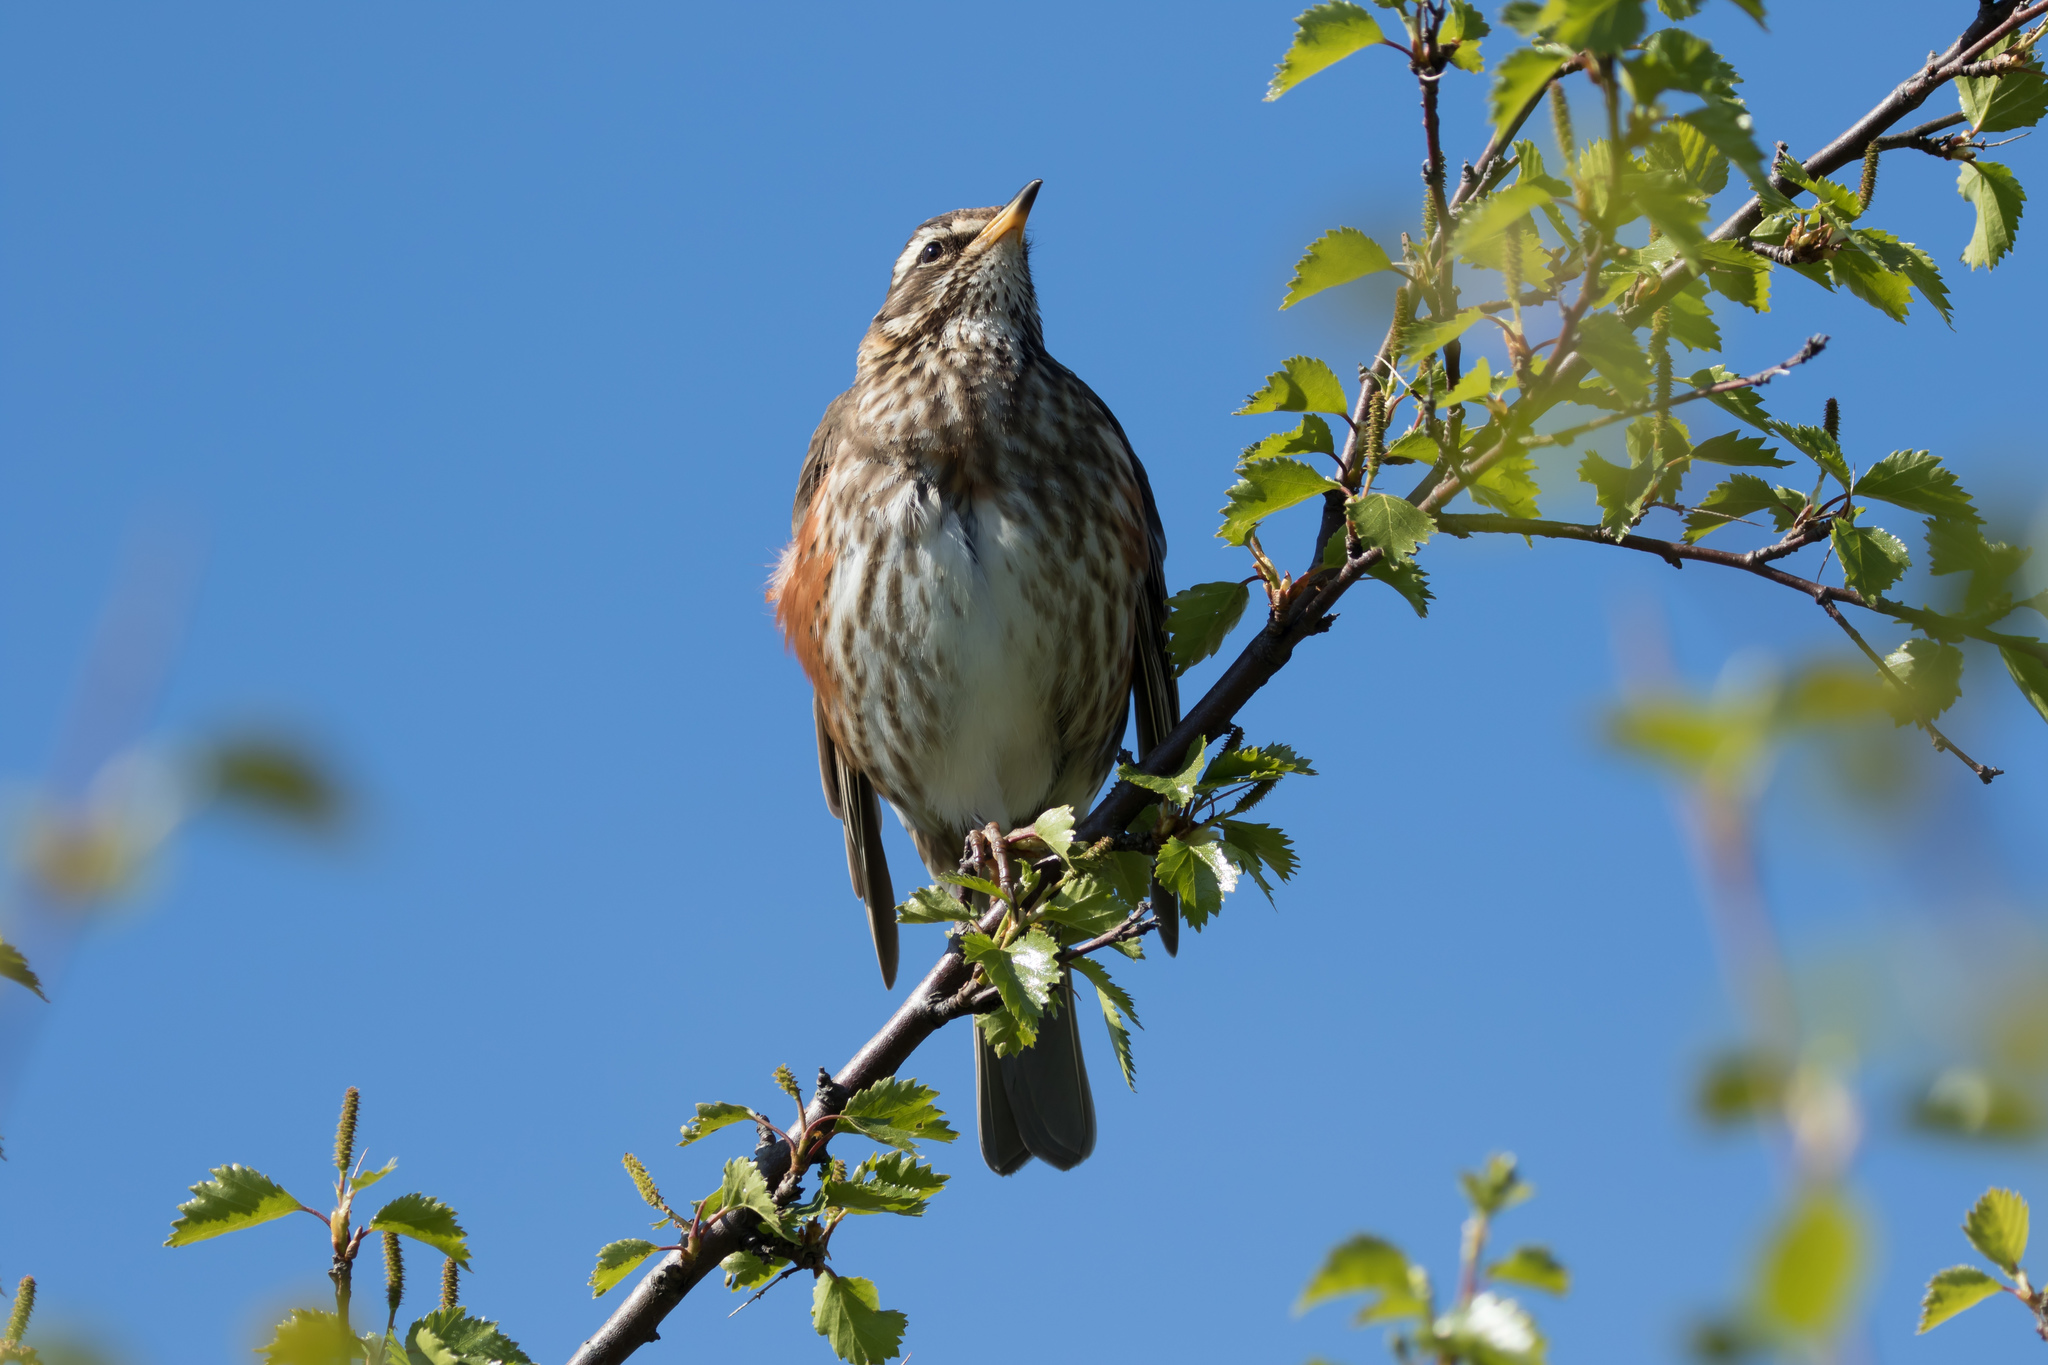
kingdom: Animalia
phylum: Chordata
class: Aves
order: Passeriformes
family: Turdidae
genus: Turdus
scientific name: Turdus iliacus
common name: Redwing
